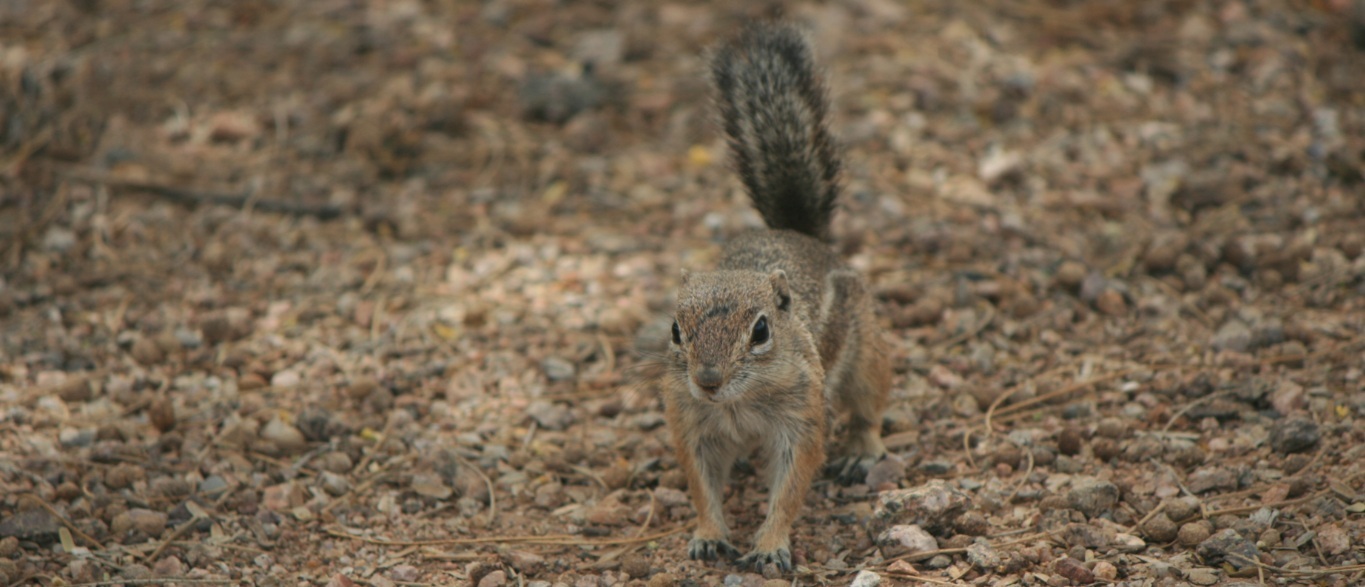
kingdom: Animalia
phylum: Chordata
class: Mammalia
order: Rodentia
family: Sciuridae
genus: Ammospermophilus
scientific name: Ammospermophilus harrisii
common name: Harris's antelope squirrel
